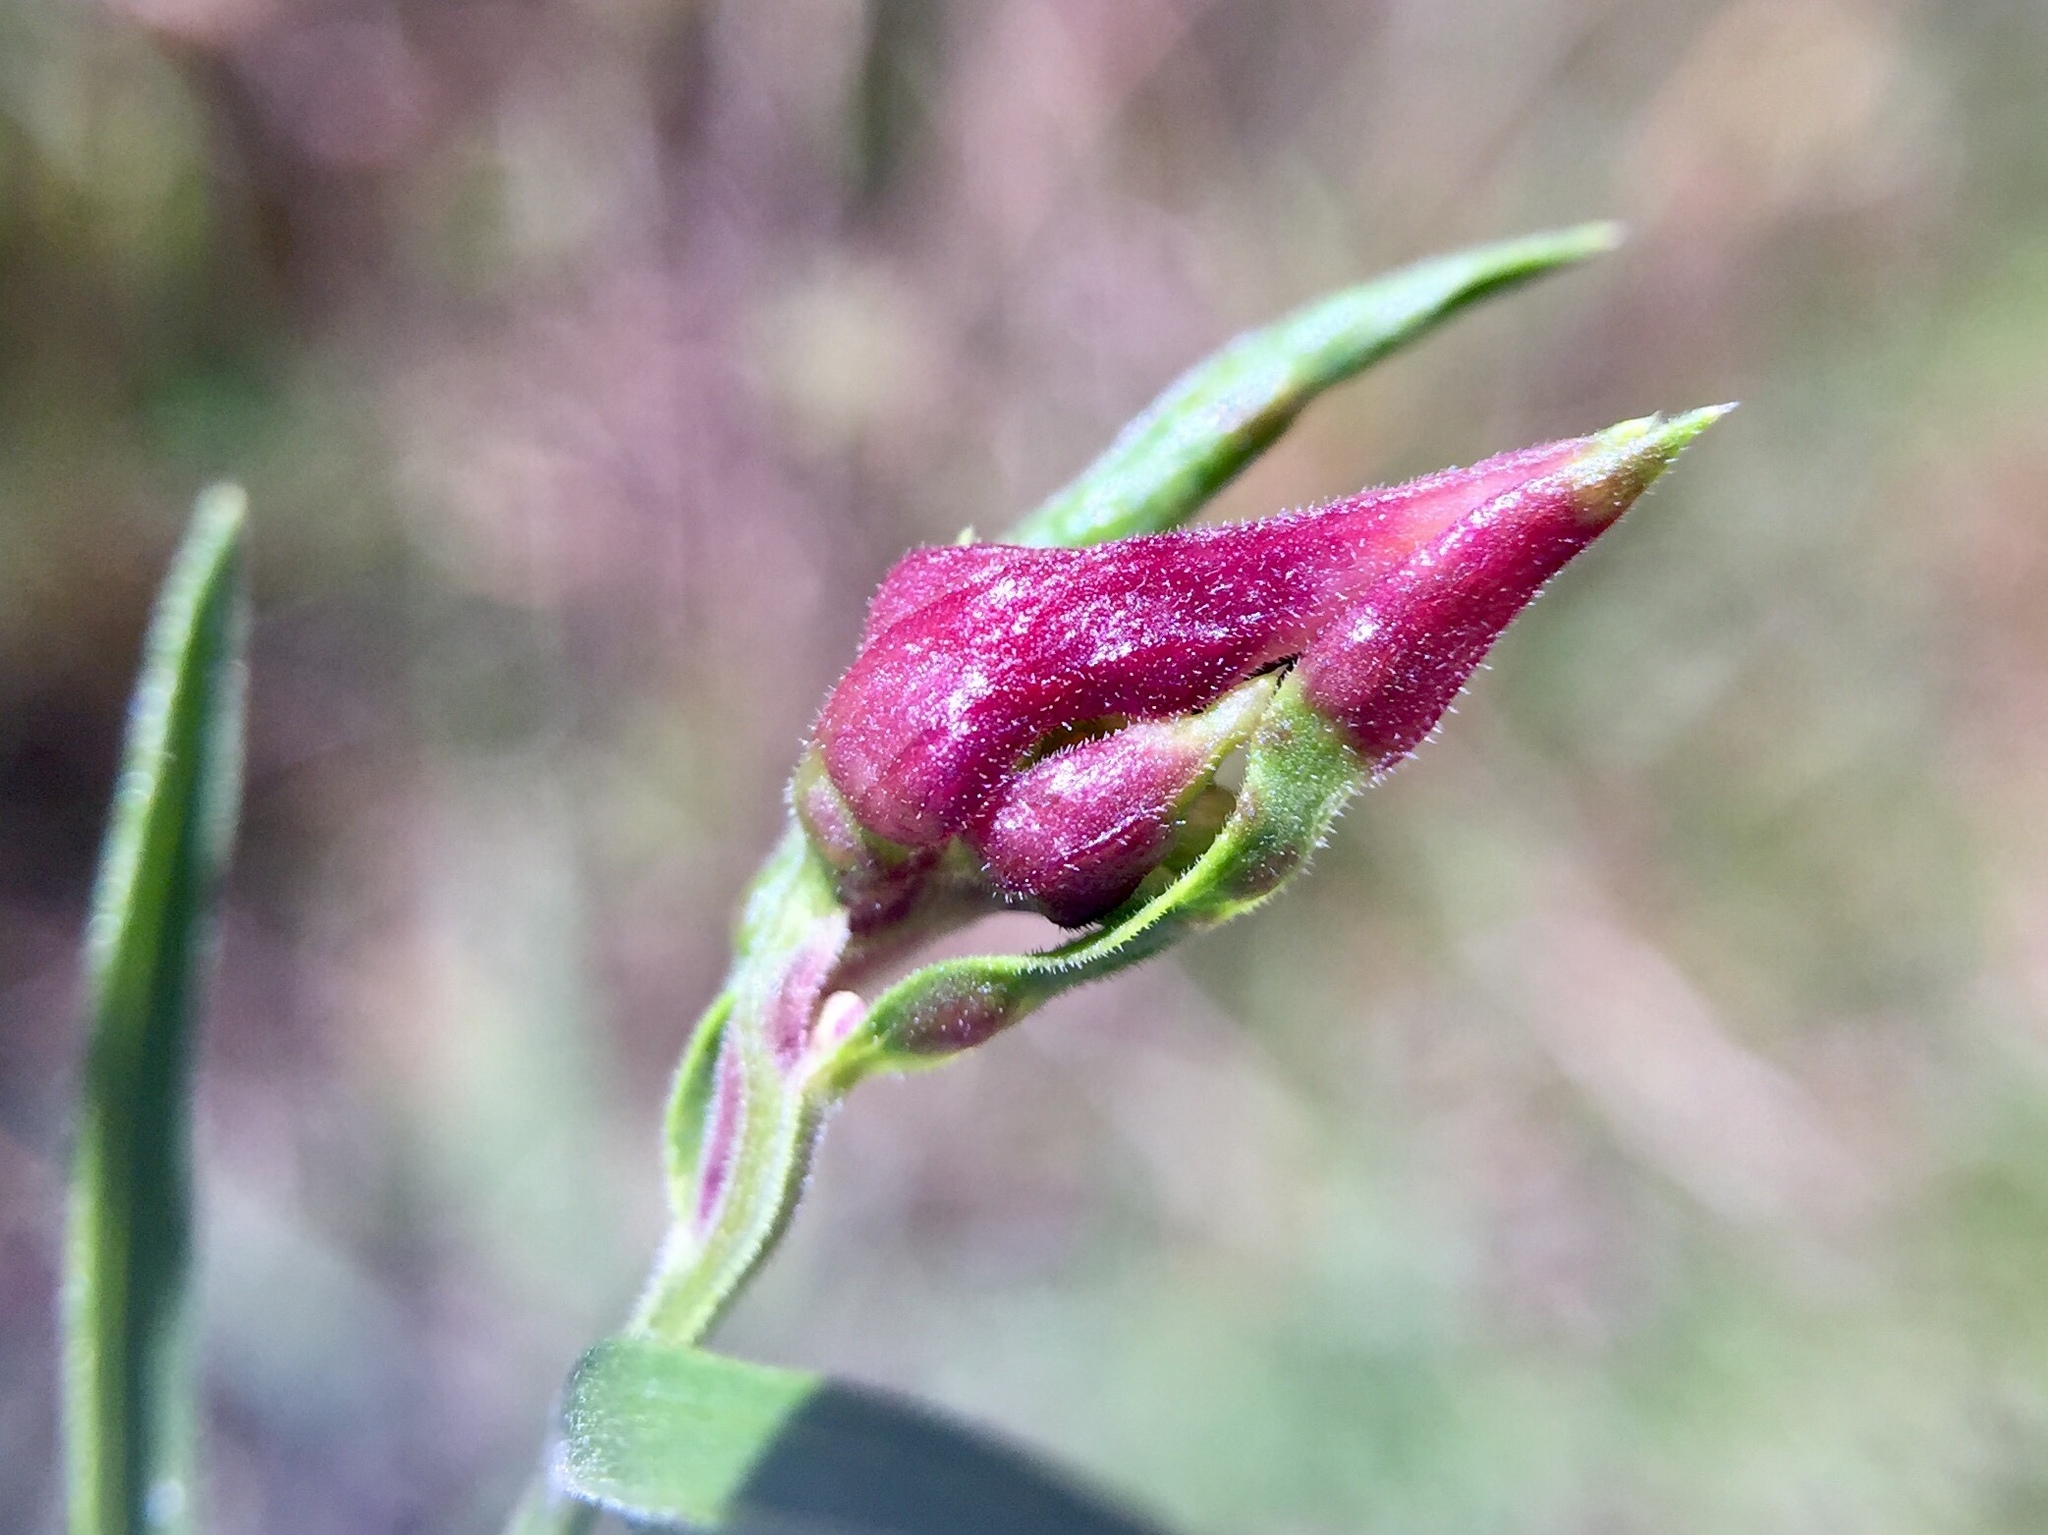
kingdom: Animalia
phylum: Arthropoda
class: Insecta
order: Diptera
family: Cecidomyiidae
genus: Dasineura
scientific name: Dasineura carbonaria
